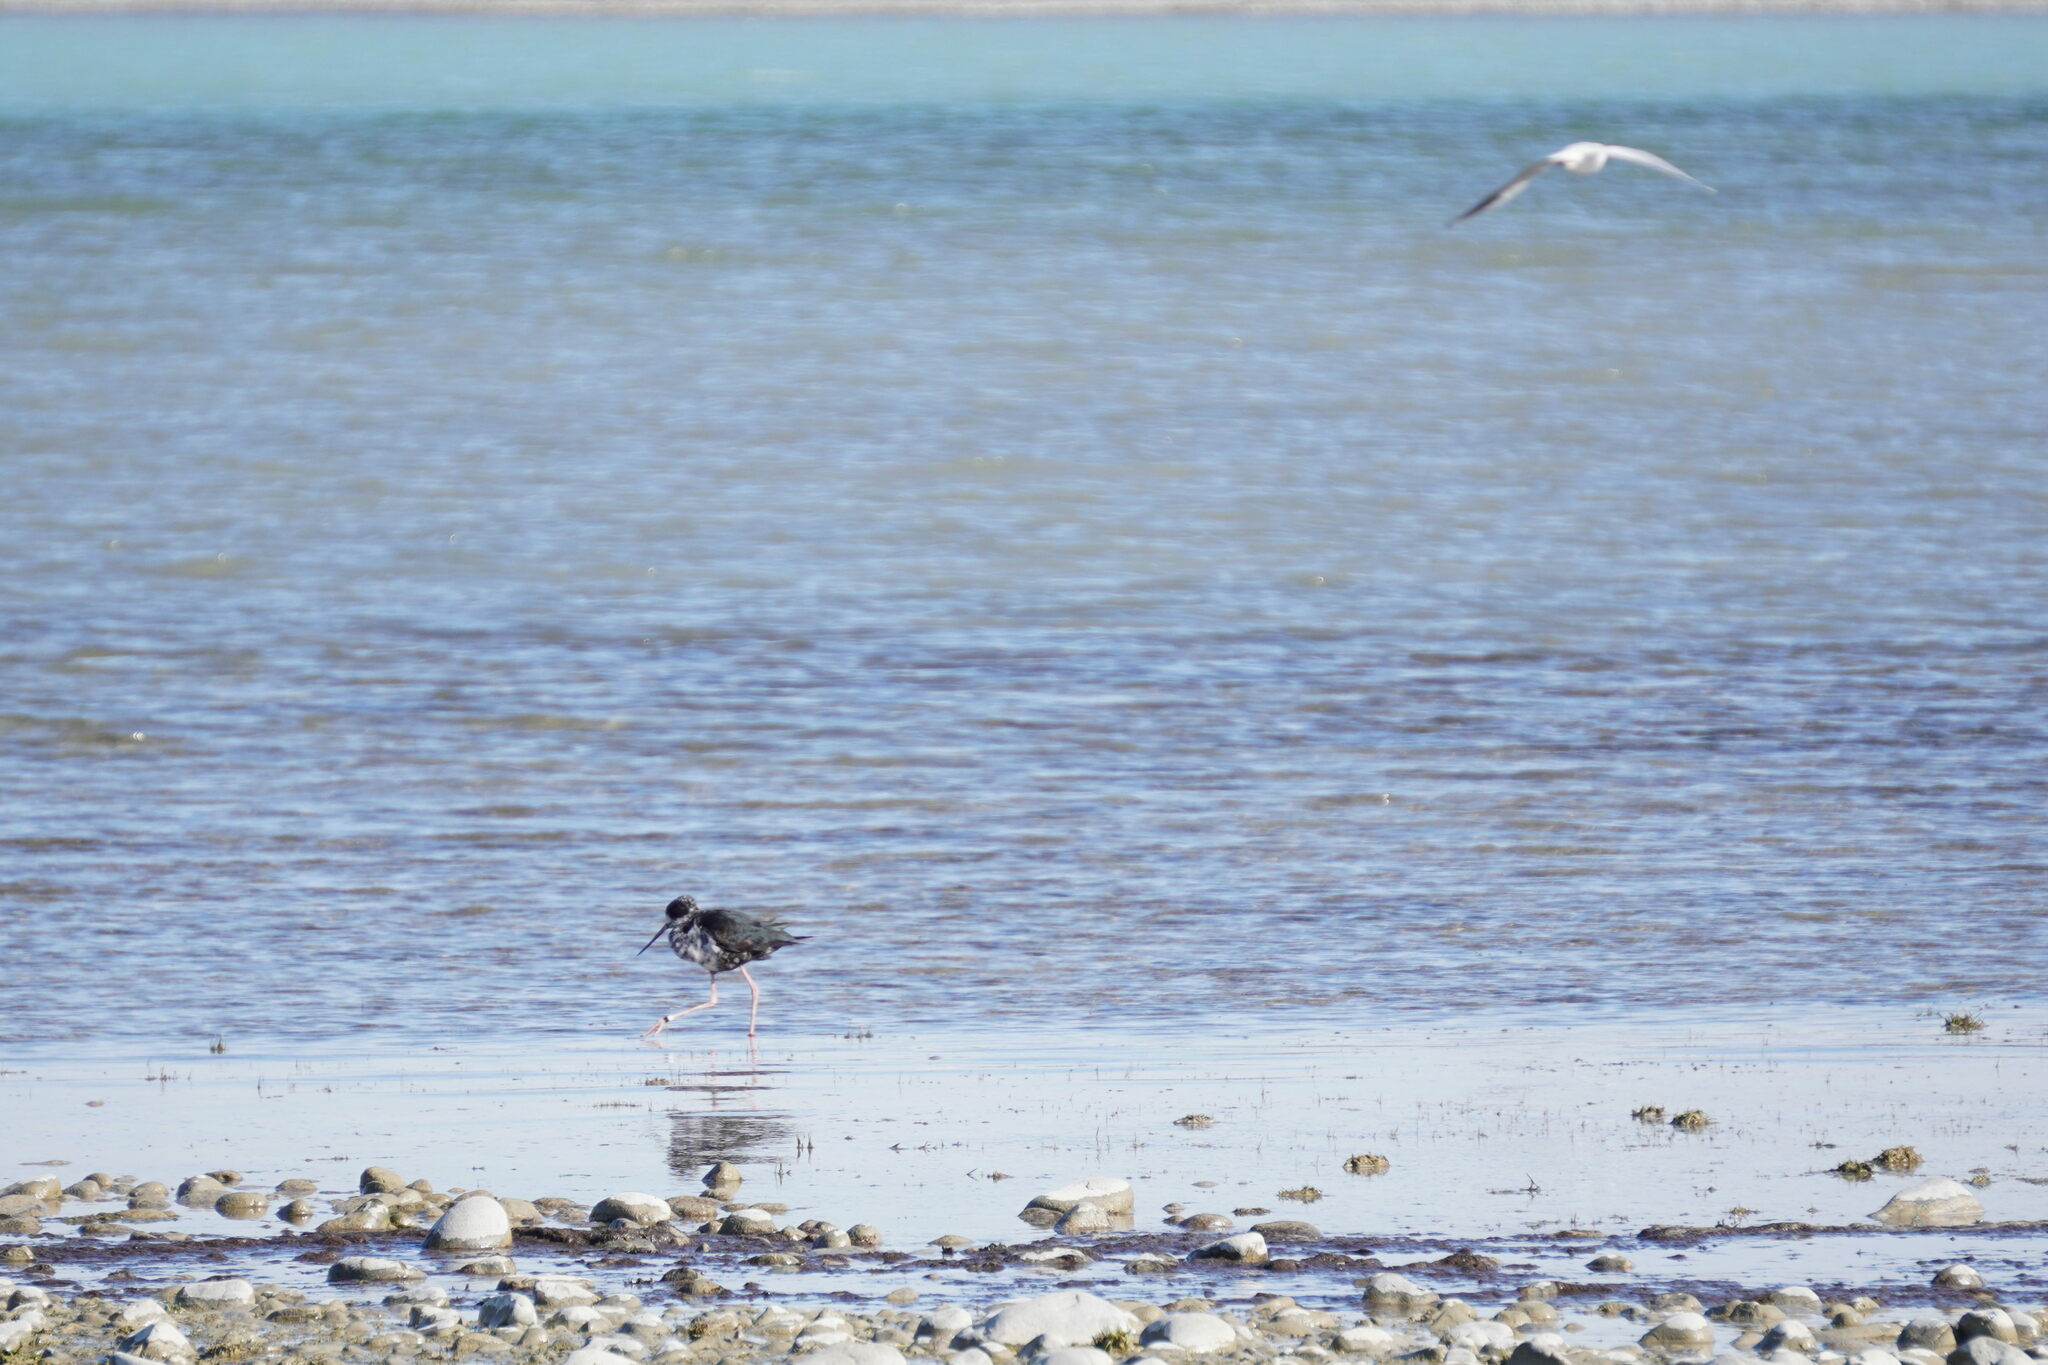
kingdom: Animalia
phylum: Chordata
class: Aves
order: Charadriiformes
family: Recurvirostridae
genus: Himantopus
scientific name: Himantopus novaezelandiae
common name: Black stilt
